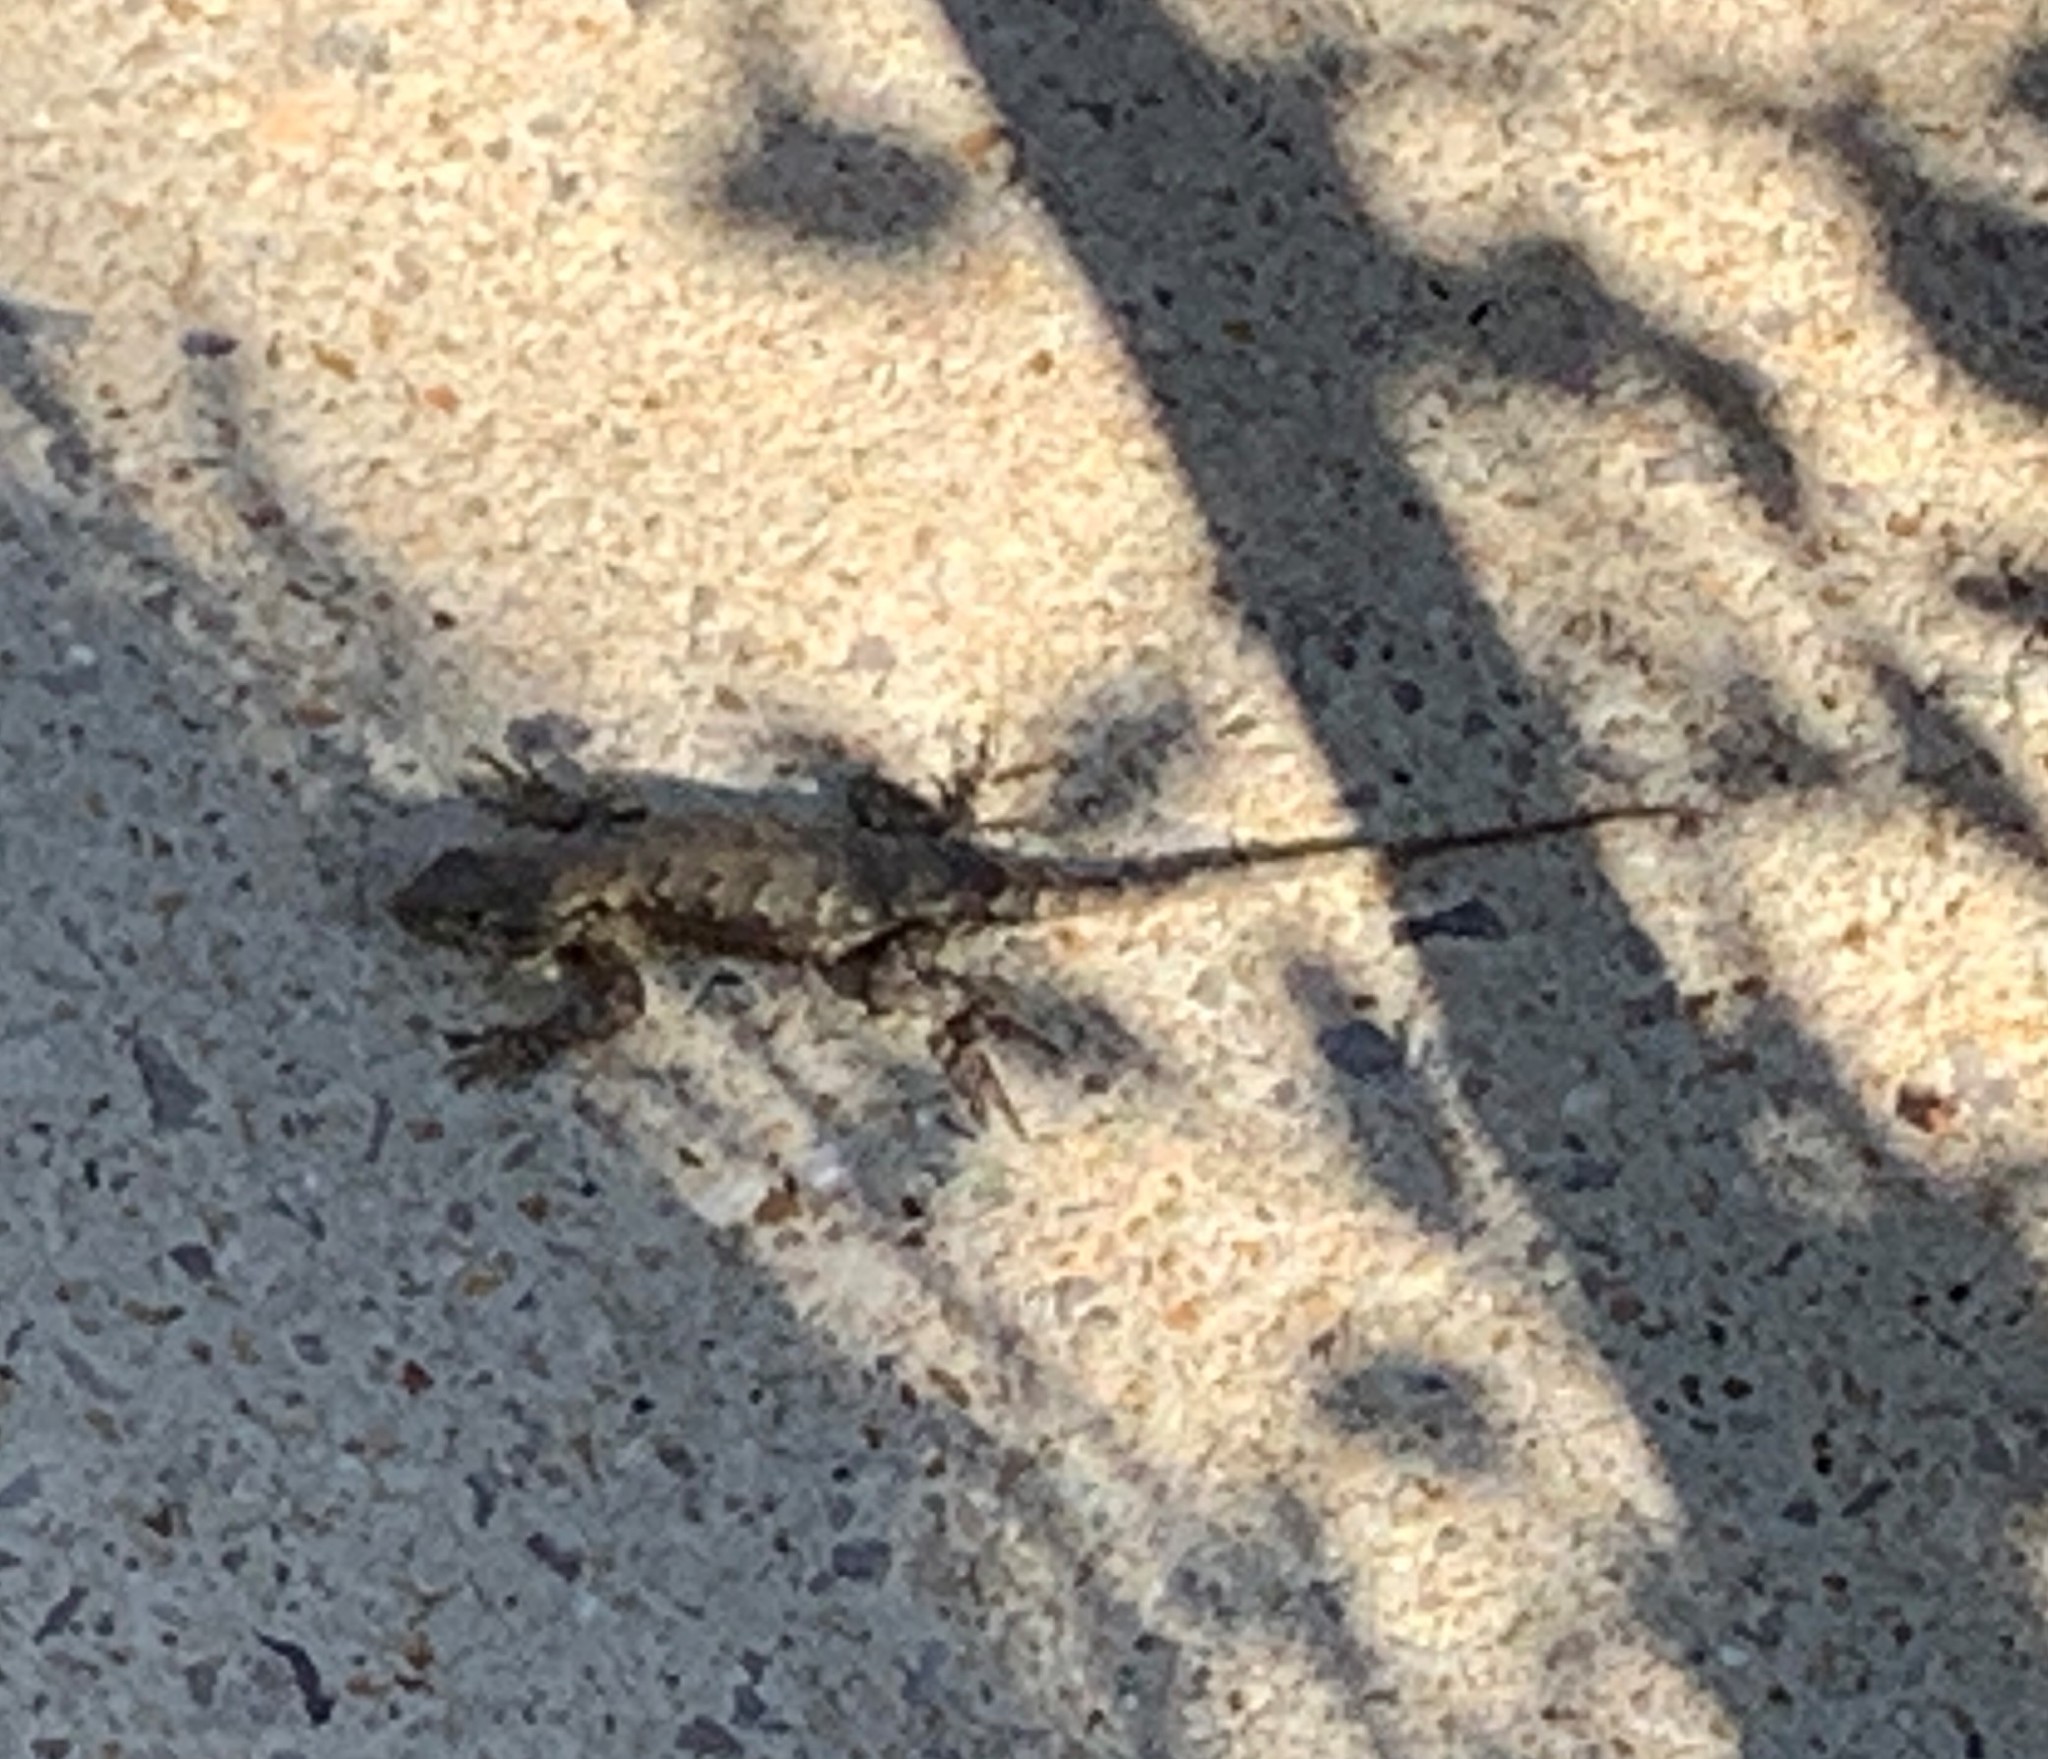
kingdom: Animalia
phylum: Chordata
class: Squamata
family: Phrynosomatidae
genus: Sceloporus
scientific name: Sceloporus undulatus
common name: Eastern fence lizard
